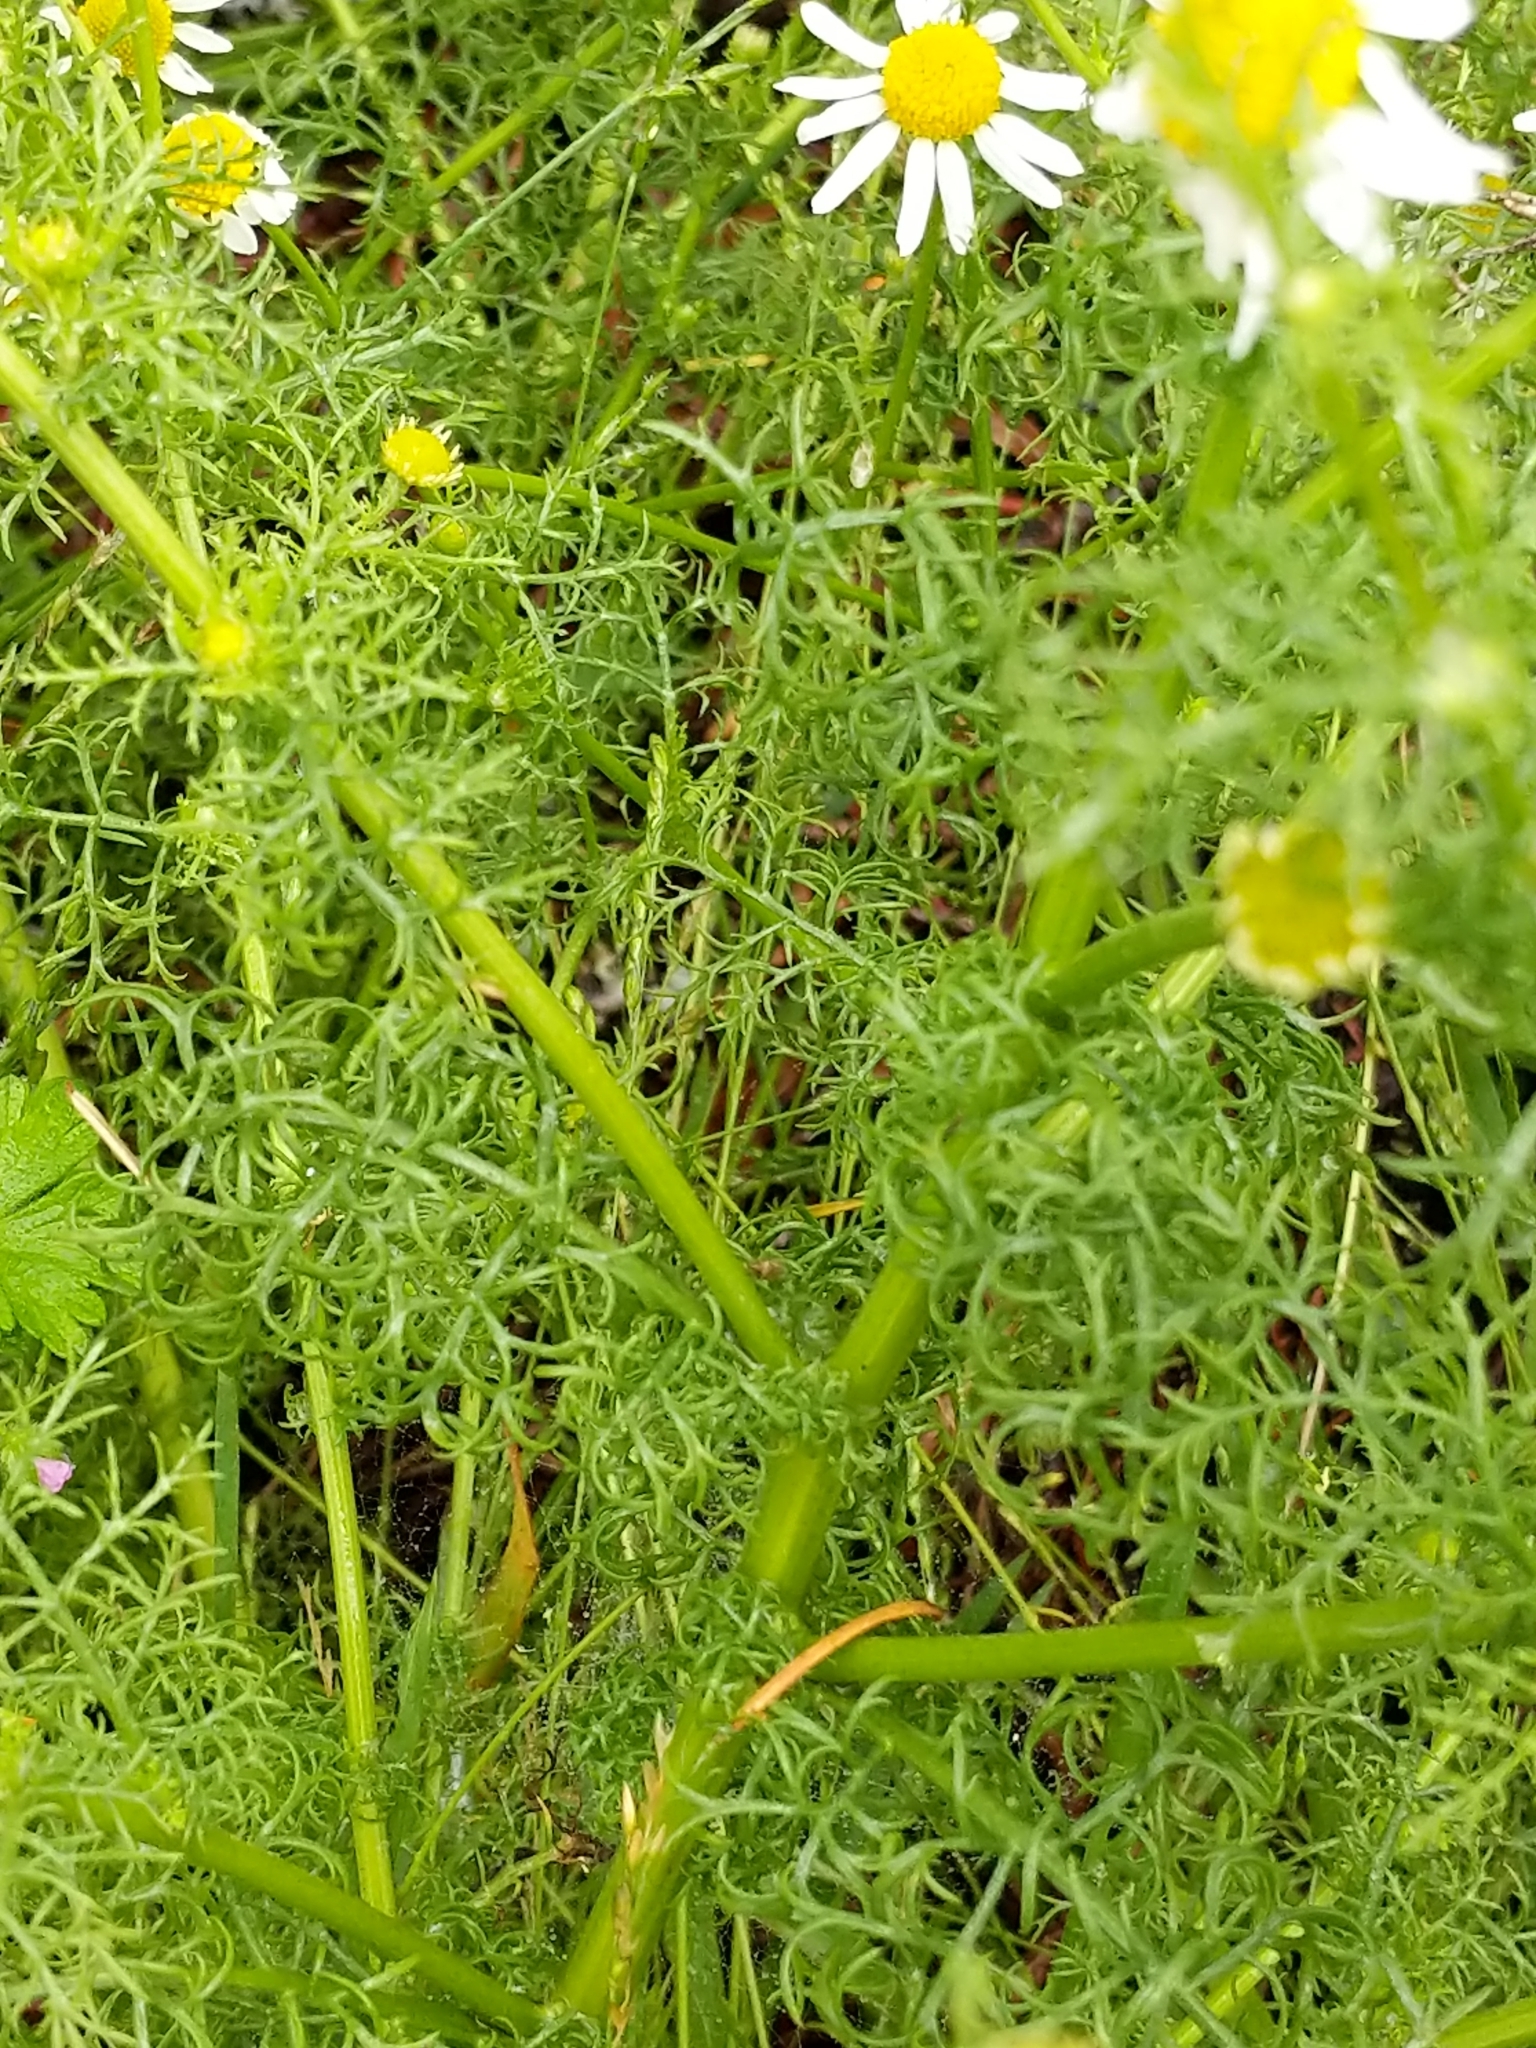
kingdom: Plantae
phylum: Tracheophyta
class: Magnoliopsida
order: Asterales
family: Asteraceae
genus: Anthemis
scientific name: Anthemis cotula
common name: Stinking chamomile
